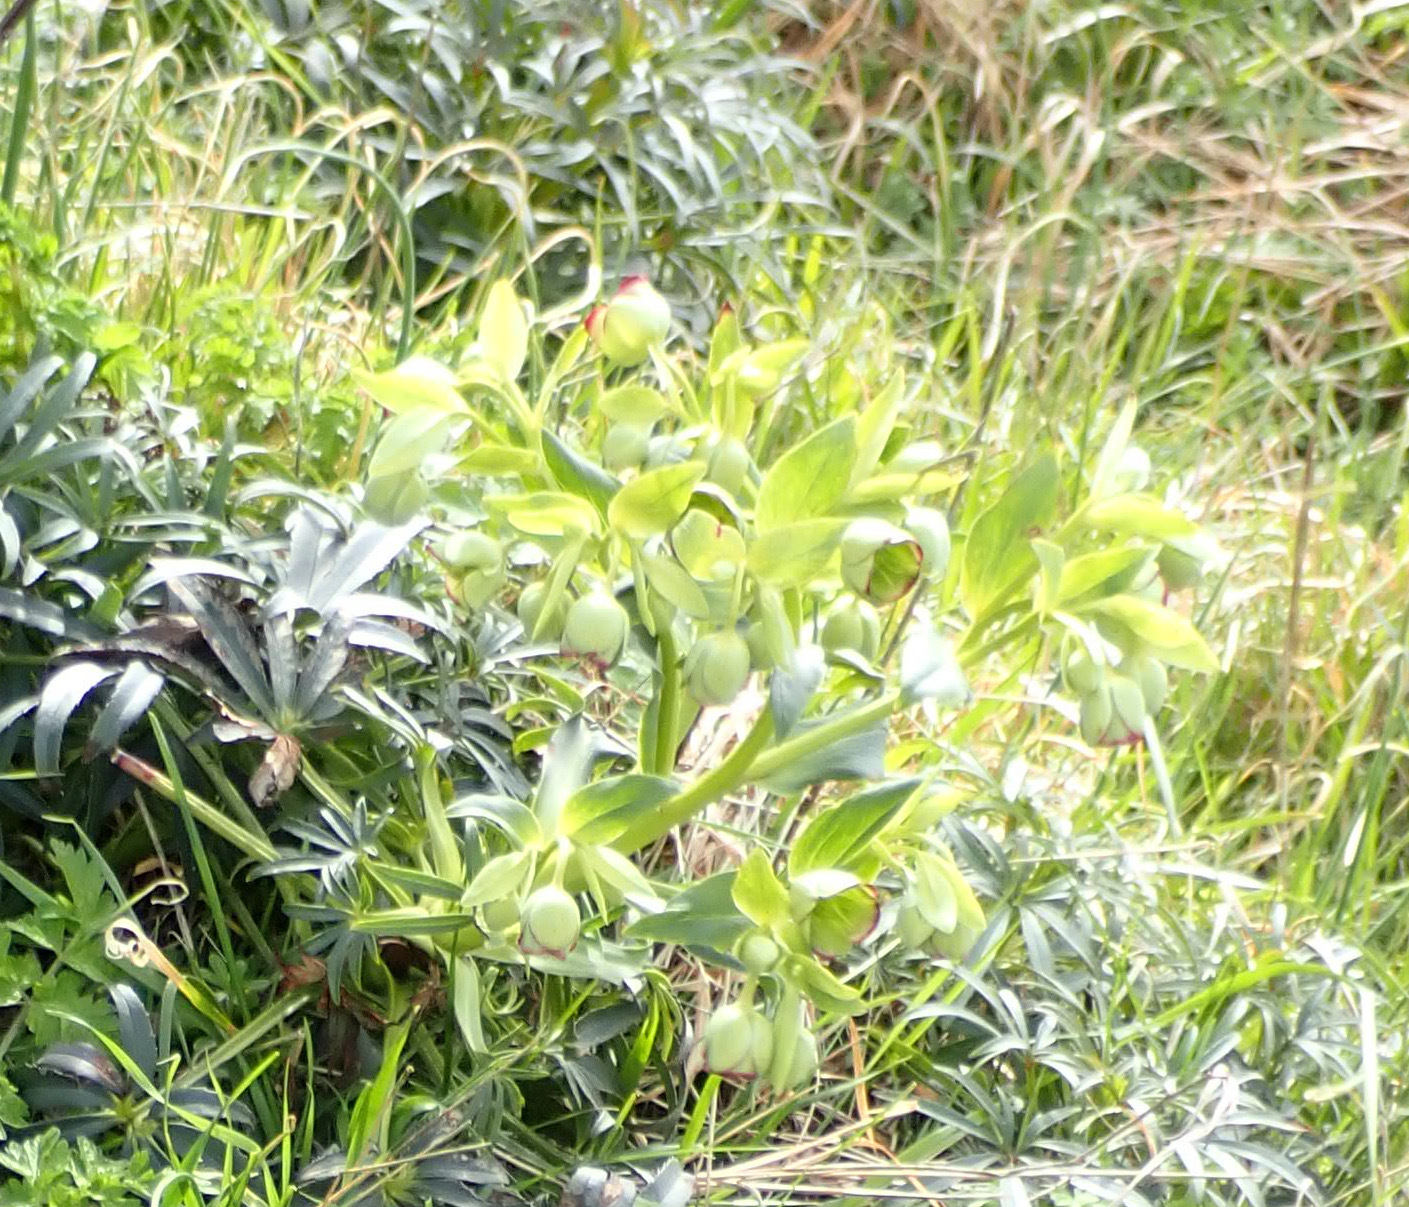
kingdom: Plantae
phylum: Tracheophyta
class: Magnoliopsida
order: Ranunculales
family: Ranunculaceae
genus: Helleborus
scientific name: Helleborus foetidus
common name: Stinking hellebore
